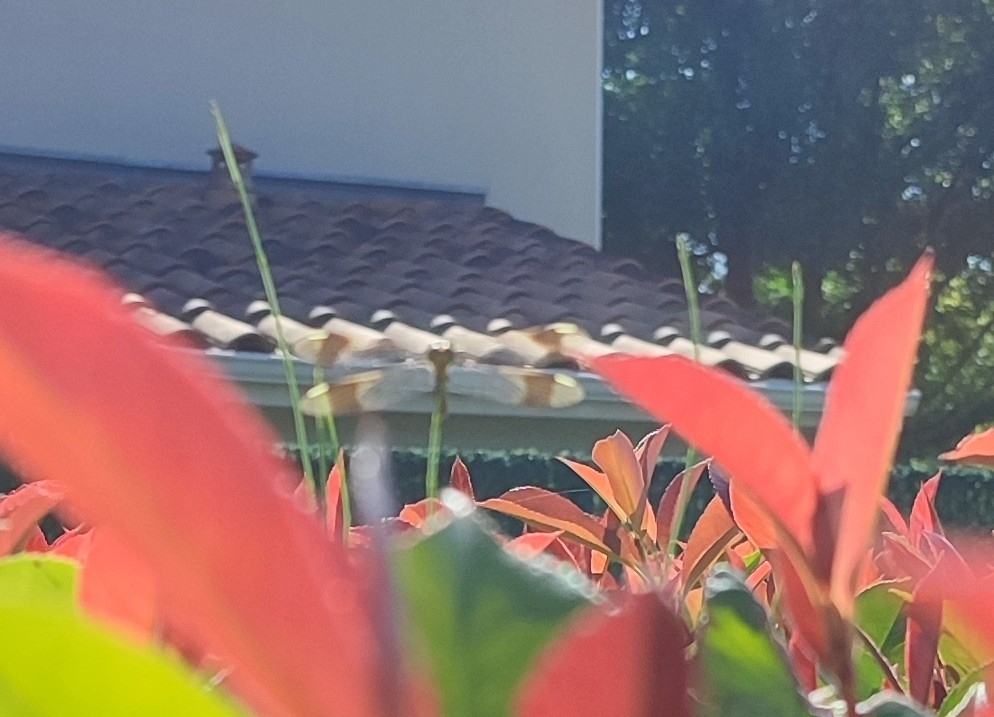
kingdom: Animalia
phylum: Arthropoda
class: Insecta
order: Odonata
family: Libellulidae
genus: Sympetrum
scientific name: Sympetrum pedemontanum
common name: Banded darter
